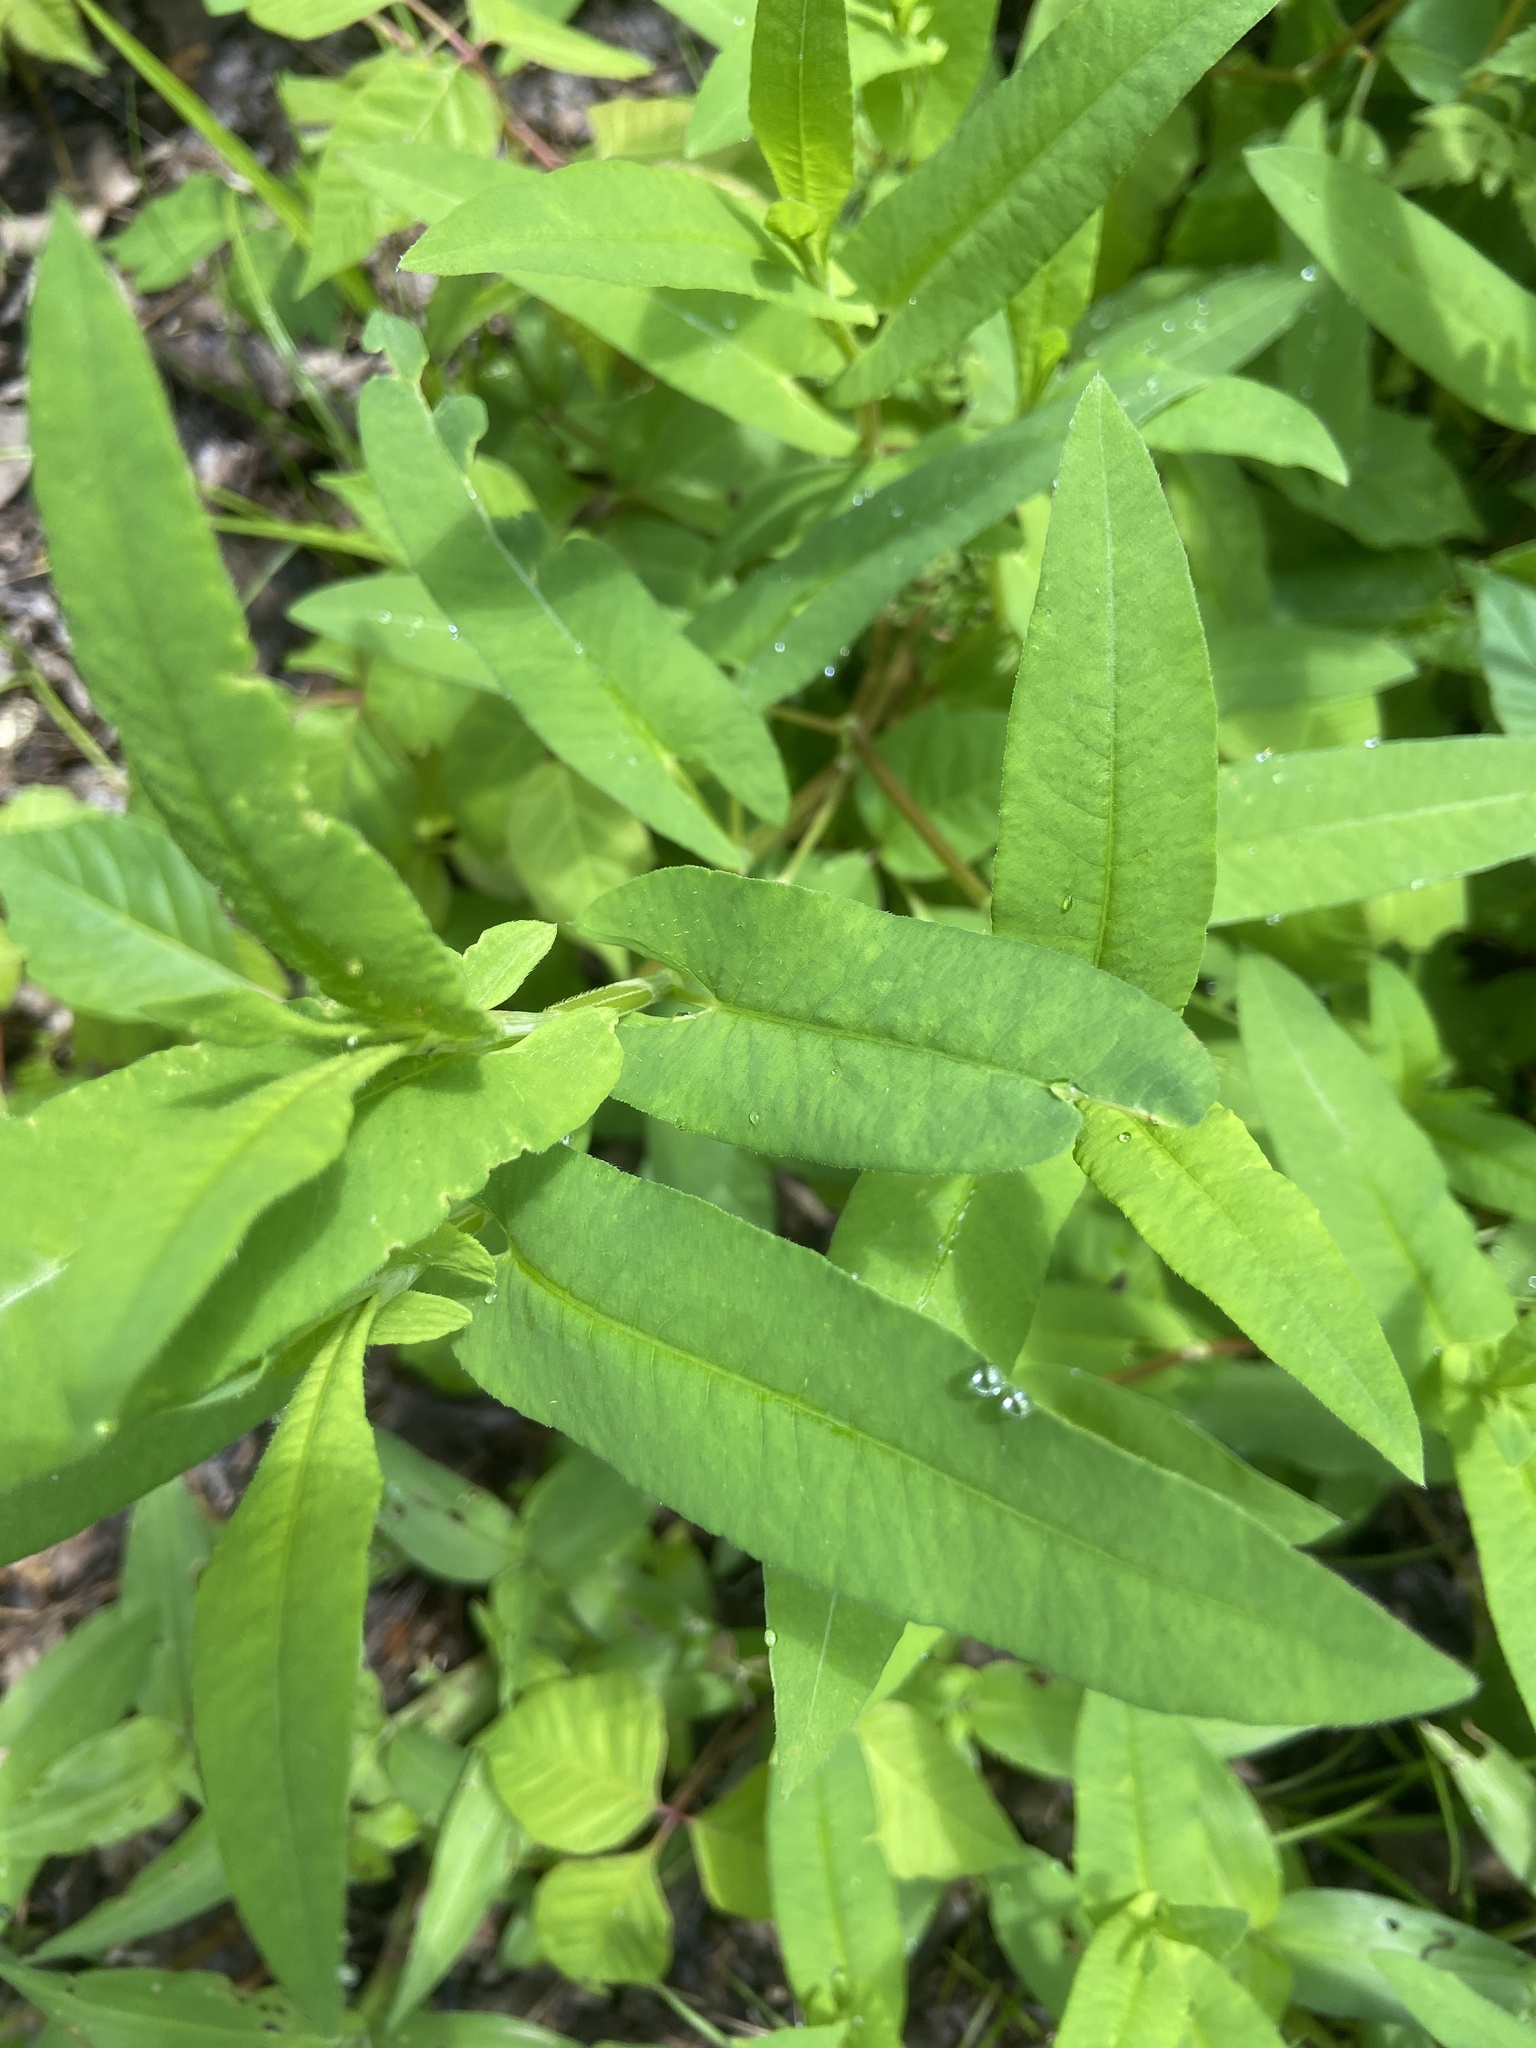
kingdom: Plantae
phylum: Tracheophyta
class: Magnoliopsida
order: Caryophyllales
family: Polygonaceae
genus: Persicaria
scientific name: Persicaria sagittata
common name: American tearthumb
